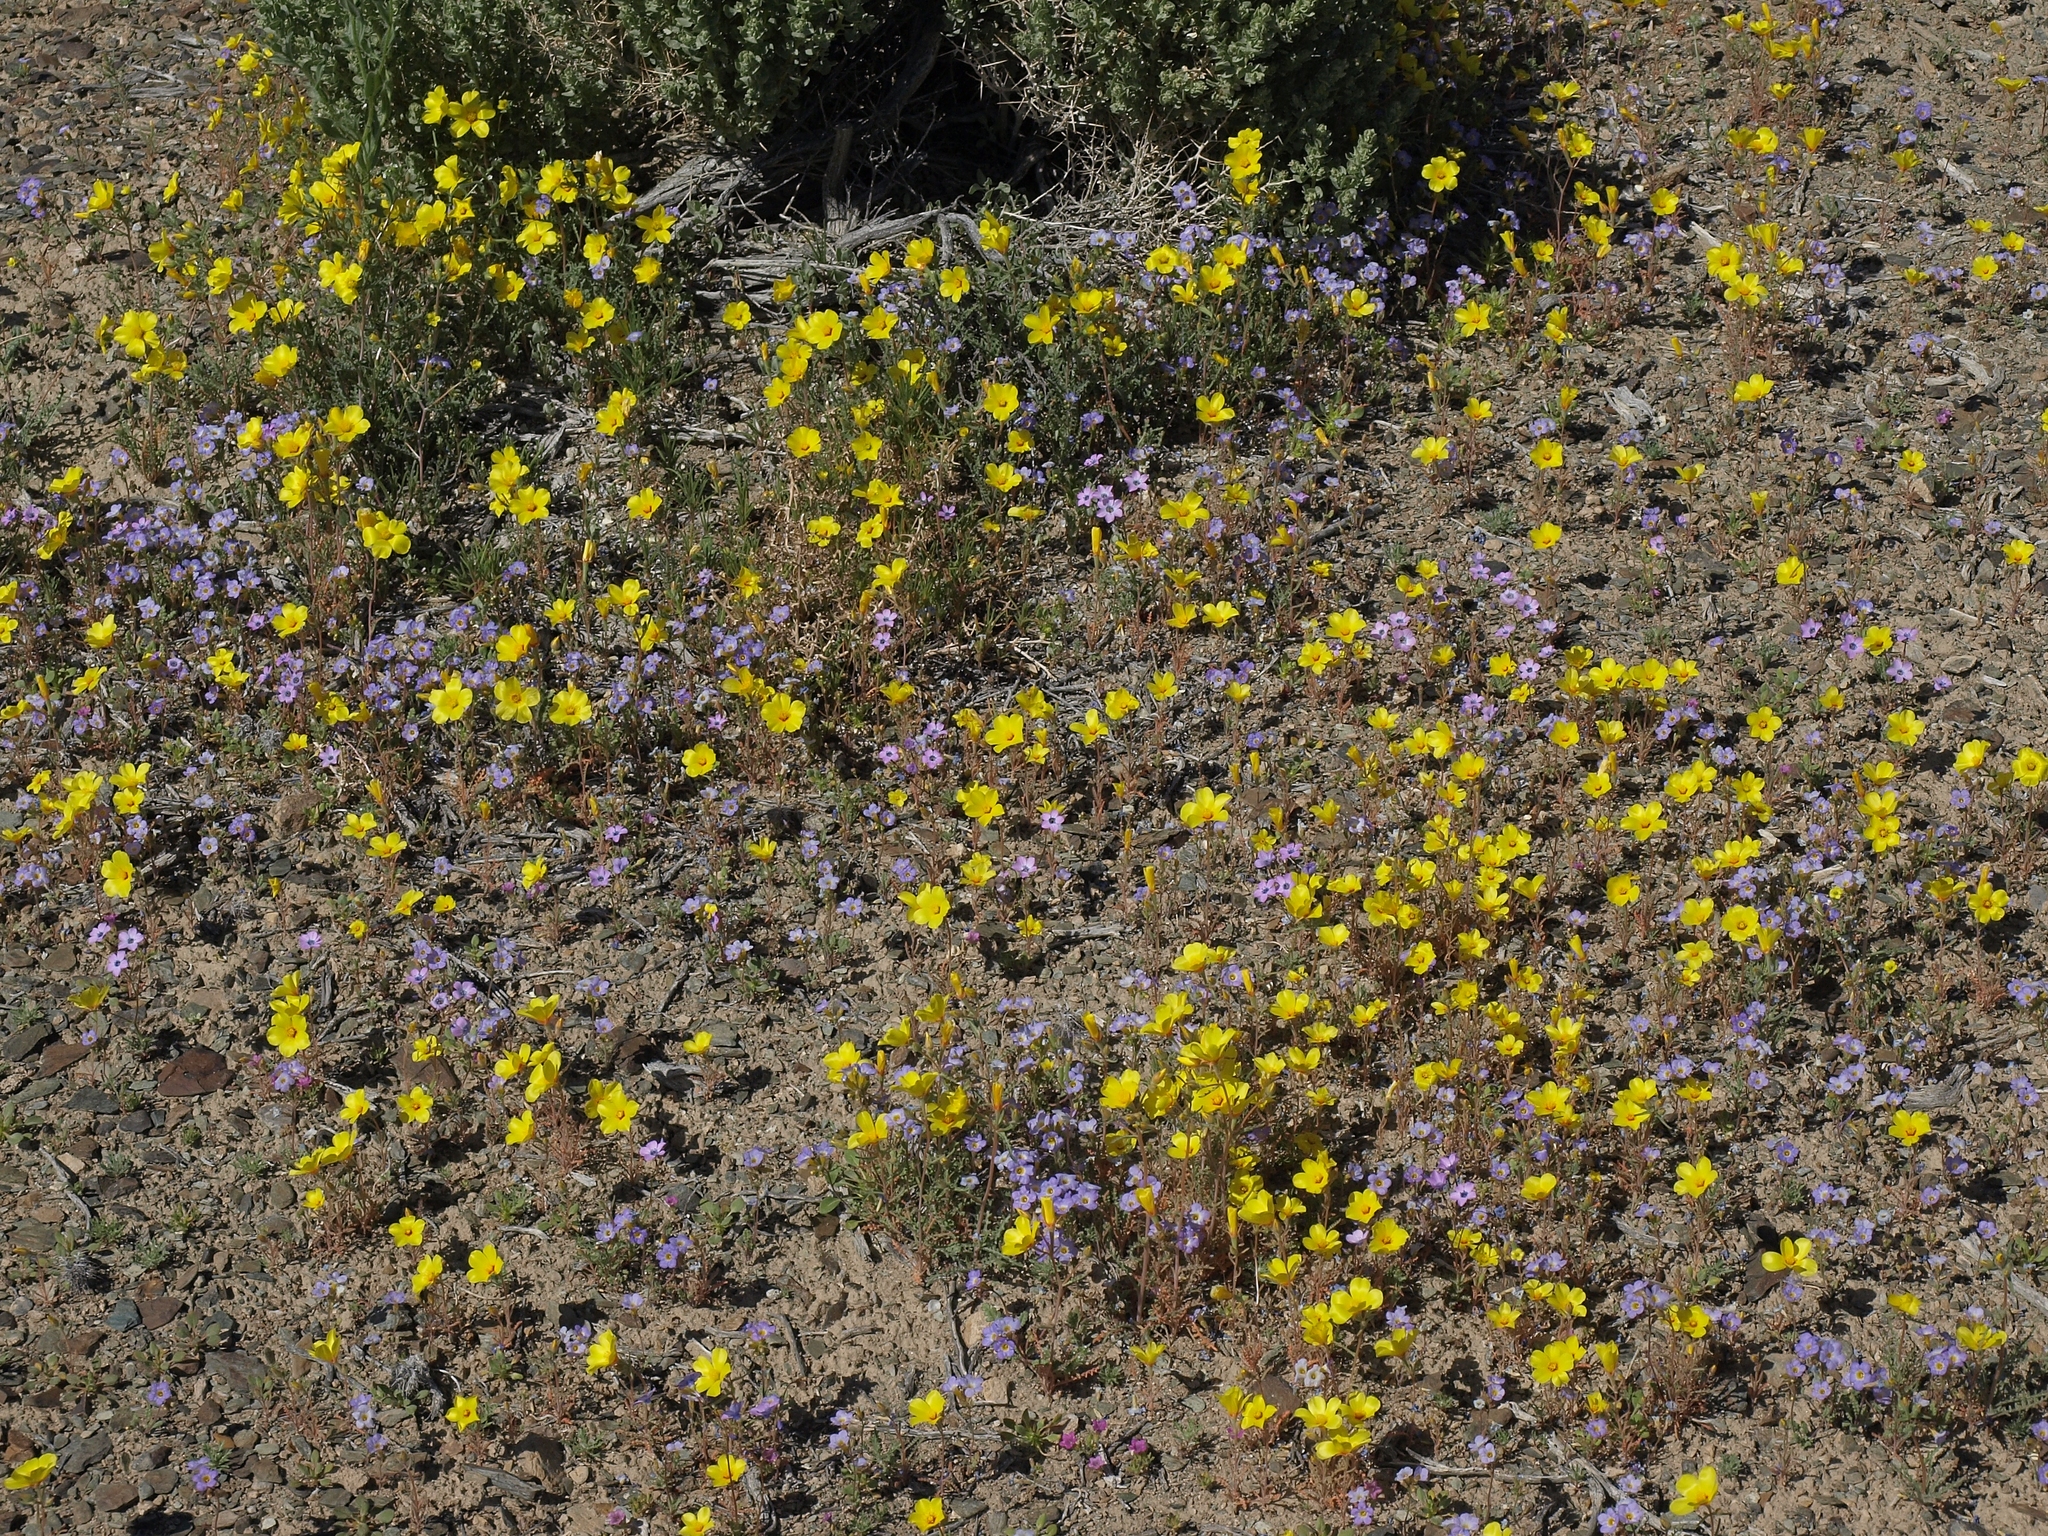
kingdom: Plantae
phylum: Tracheophyta
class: Magnoliopsida
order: Cornales
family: Loasaceae
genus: Mentzelia
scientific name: Mentzelia nitens
